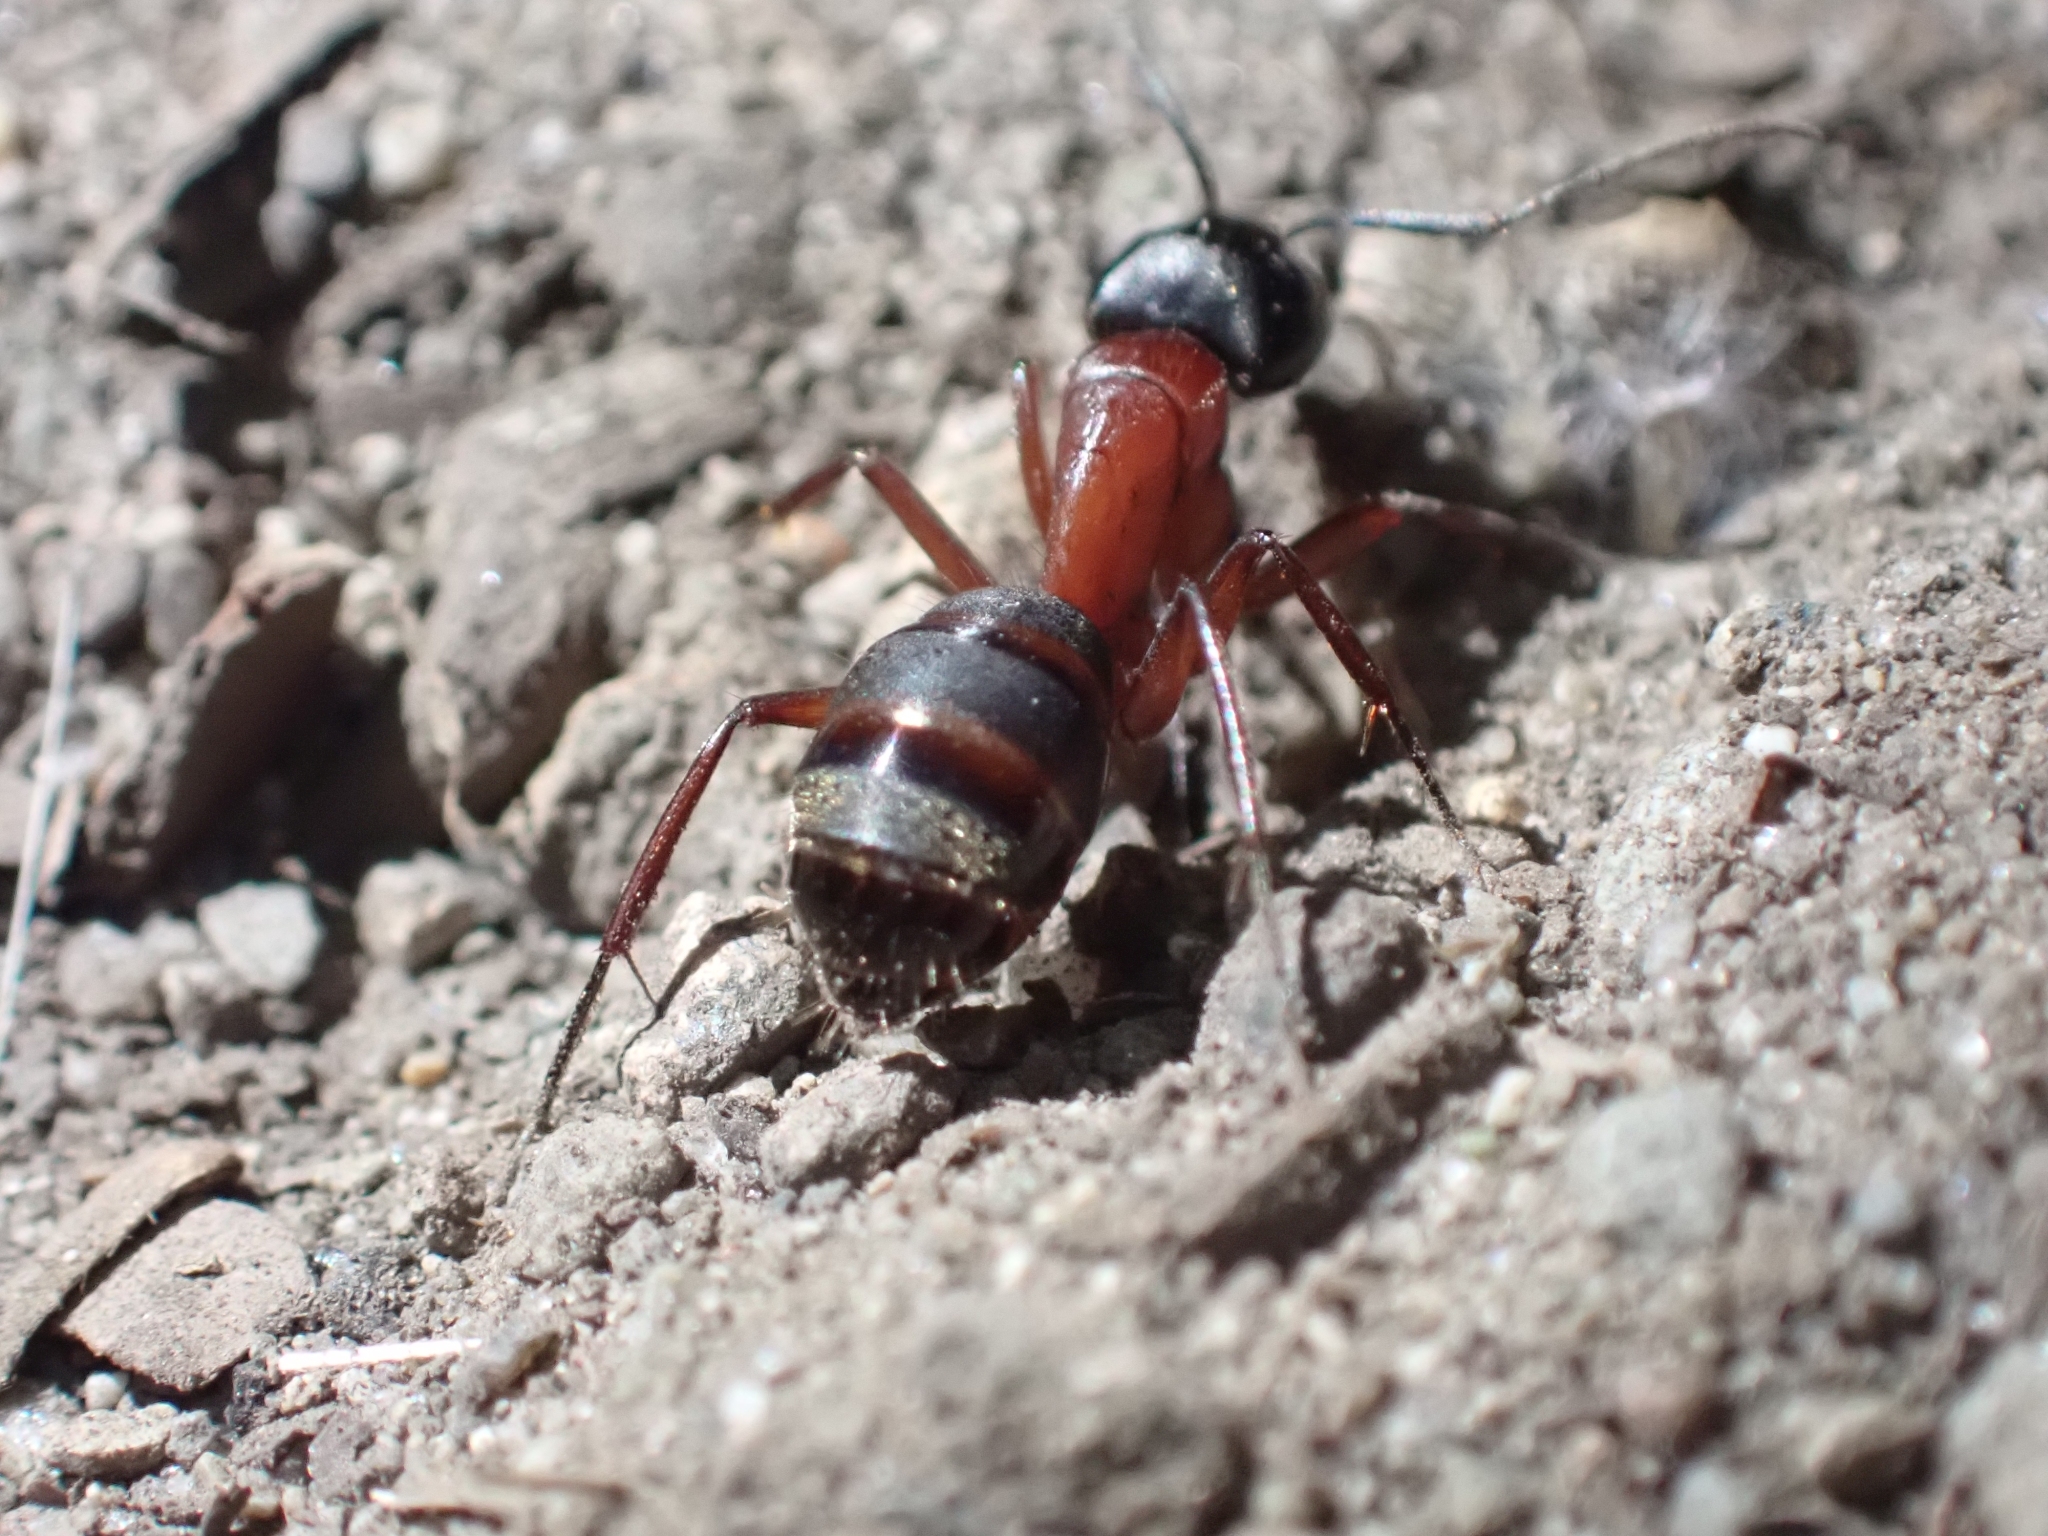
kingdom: Animalia
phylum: Arthropoda
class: Insecta
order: Hymenoptera
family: Formicidae
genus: Camponotus
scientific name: Camponotus vicinus
